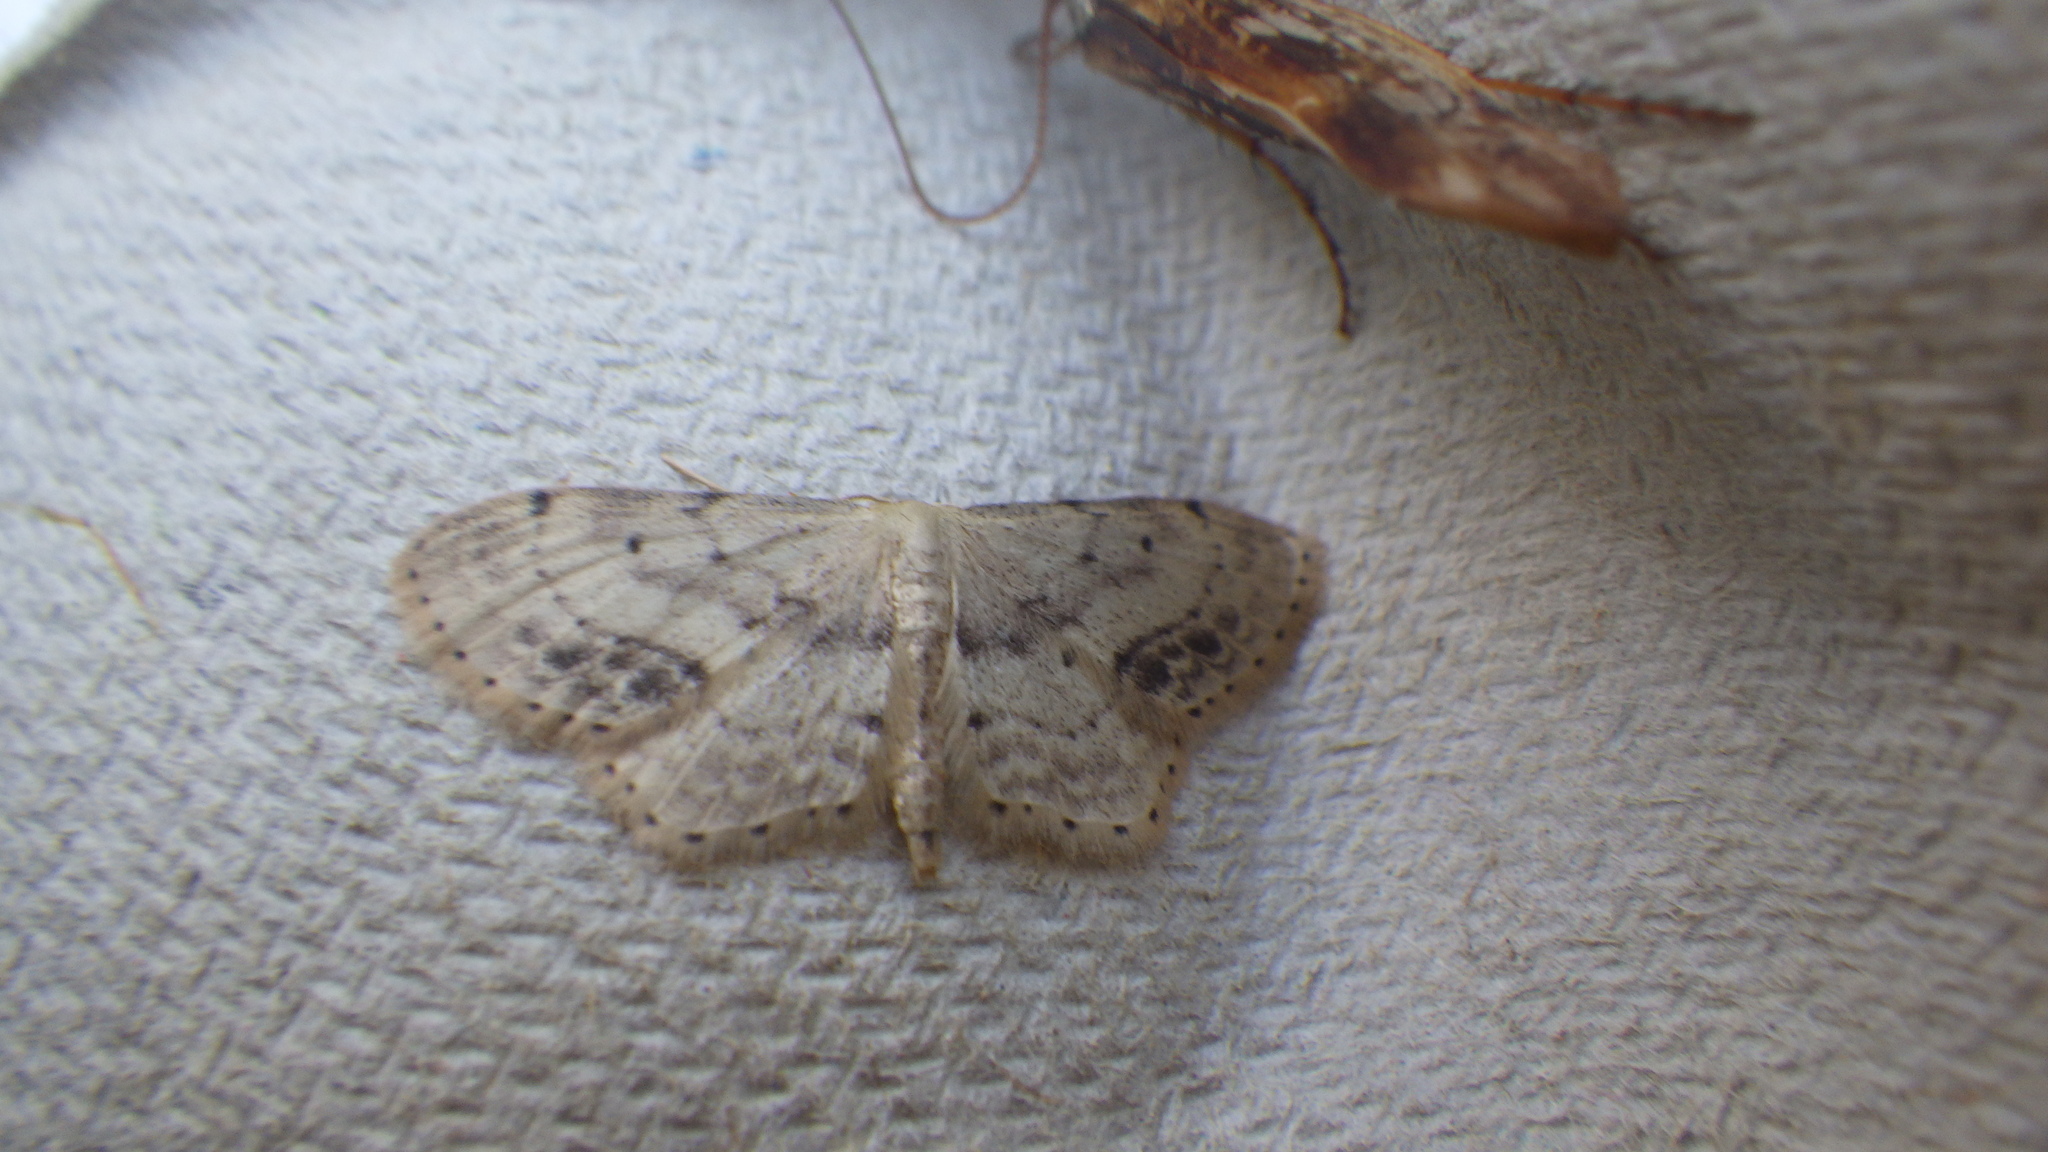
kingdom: Animalia
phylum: Arthropoda
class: Insecta
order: Lepidoptera
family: Geometridae
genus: Idaea
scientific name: Idaea dimidiata
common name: Single-dotted wave
